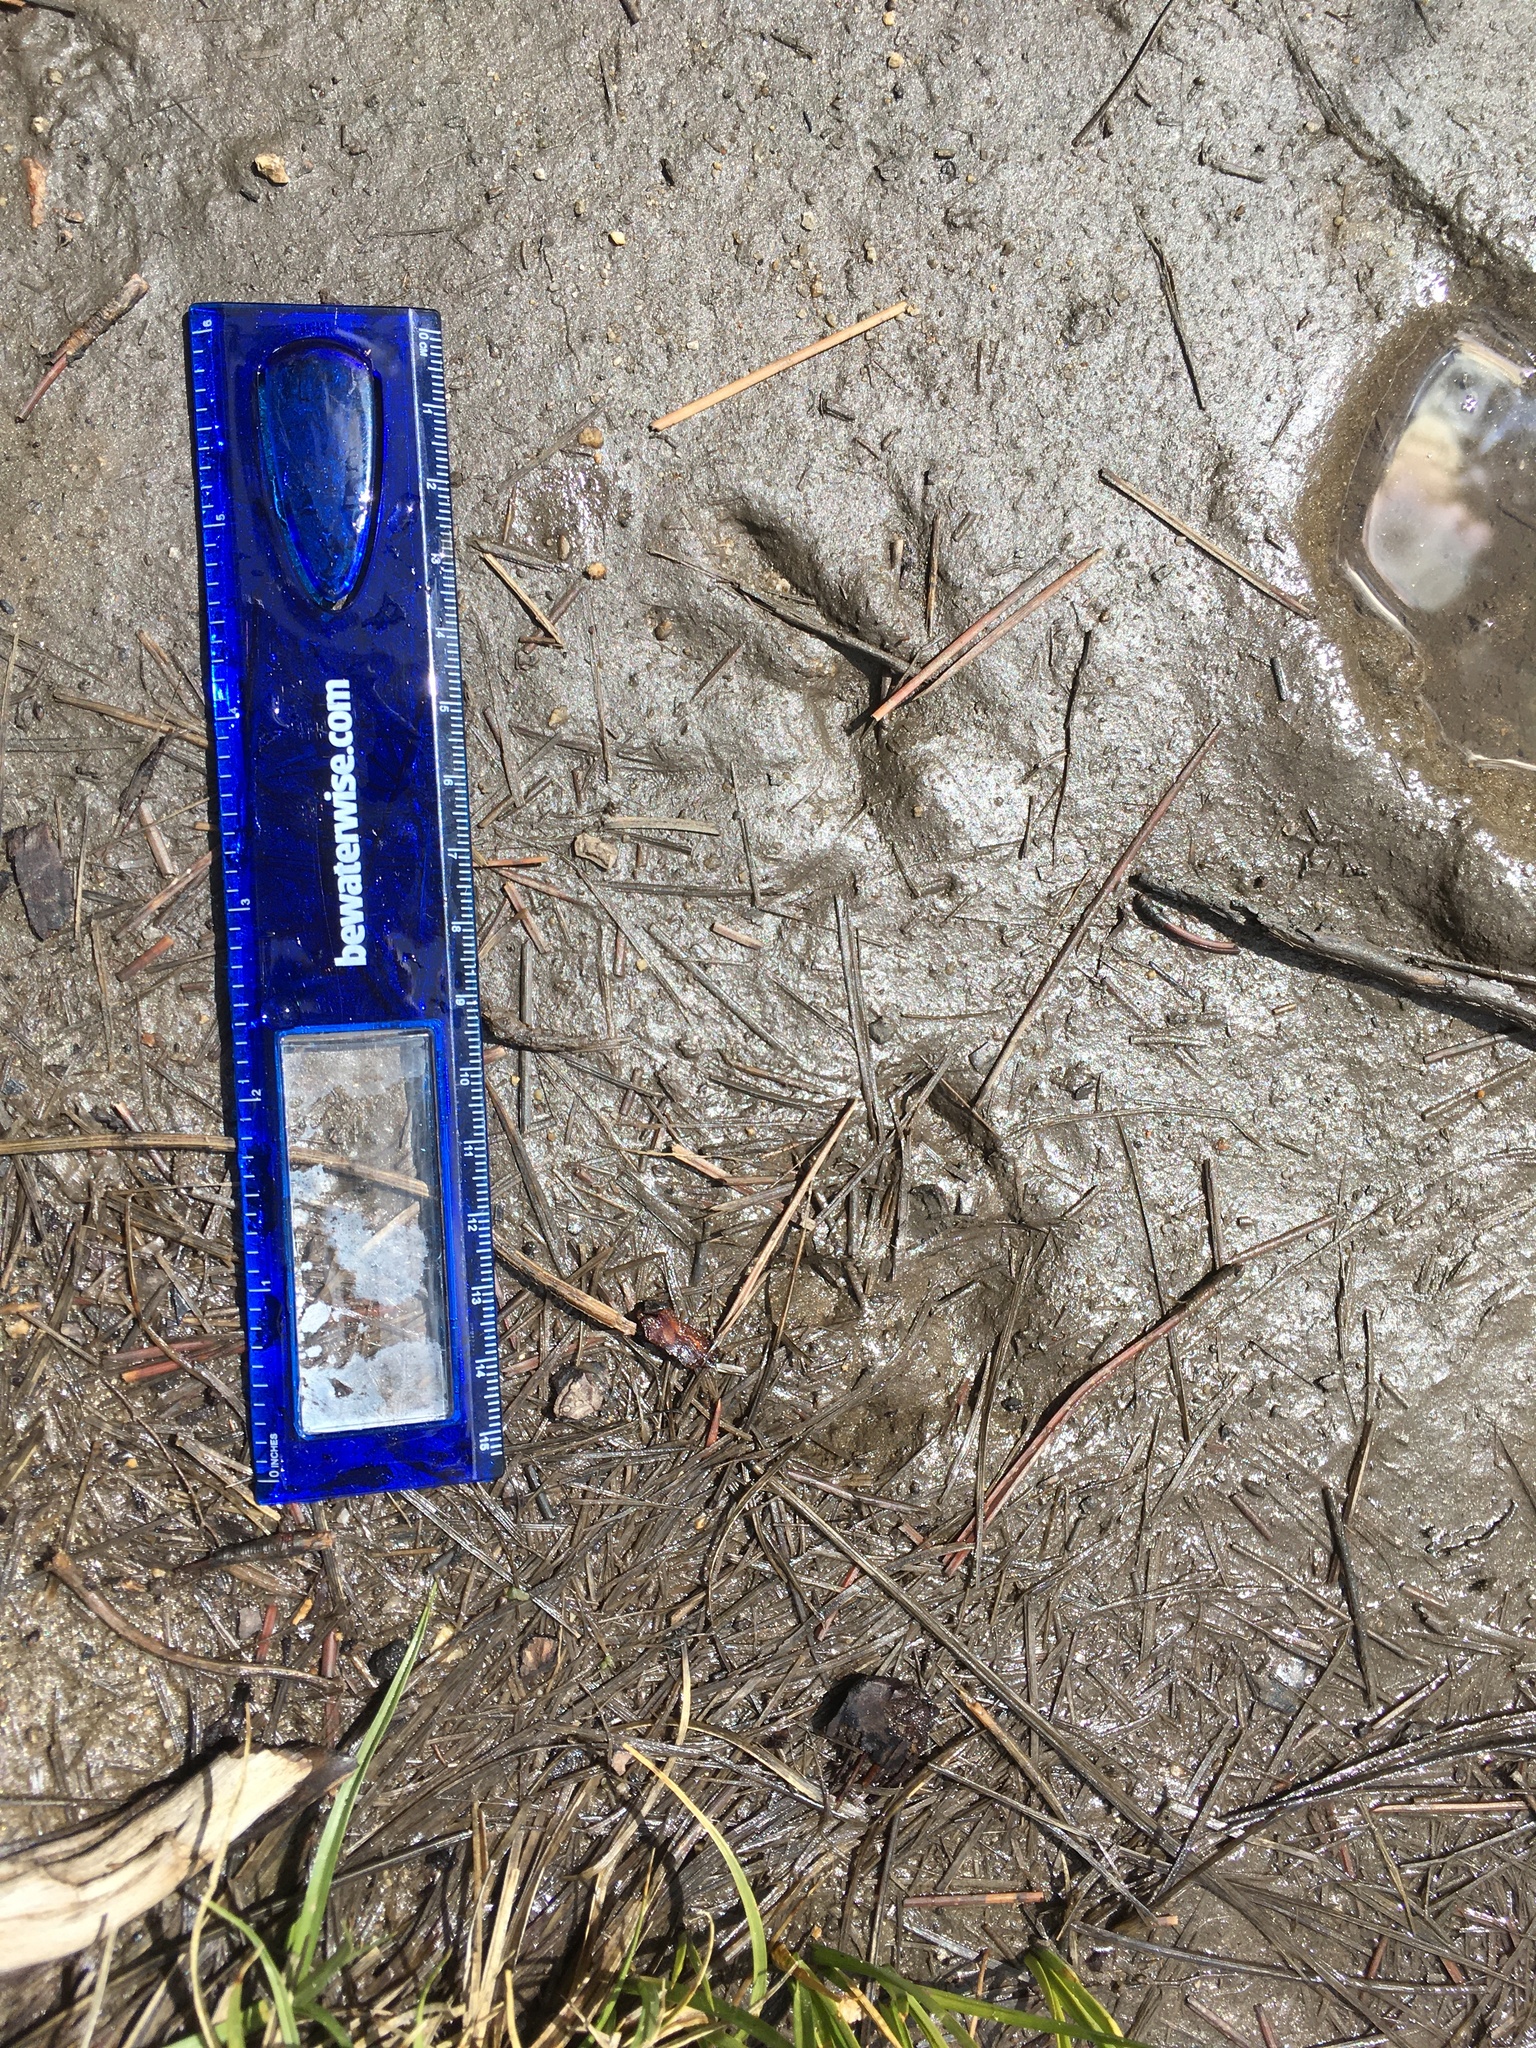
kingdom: Animalia
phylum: Chordata
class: Mammalia
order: Carnivora
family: Procyonidae
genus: Procyon
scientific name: Procyon lotor
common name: Raccoon
